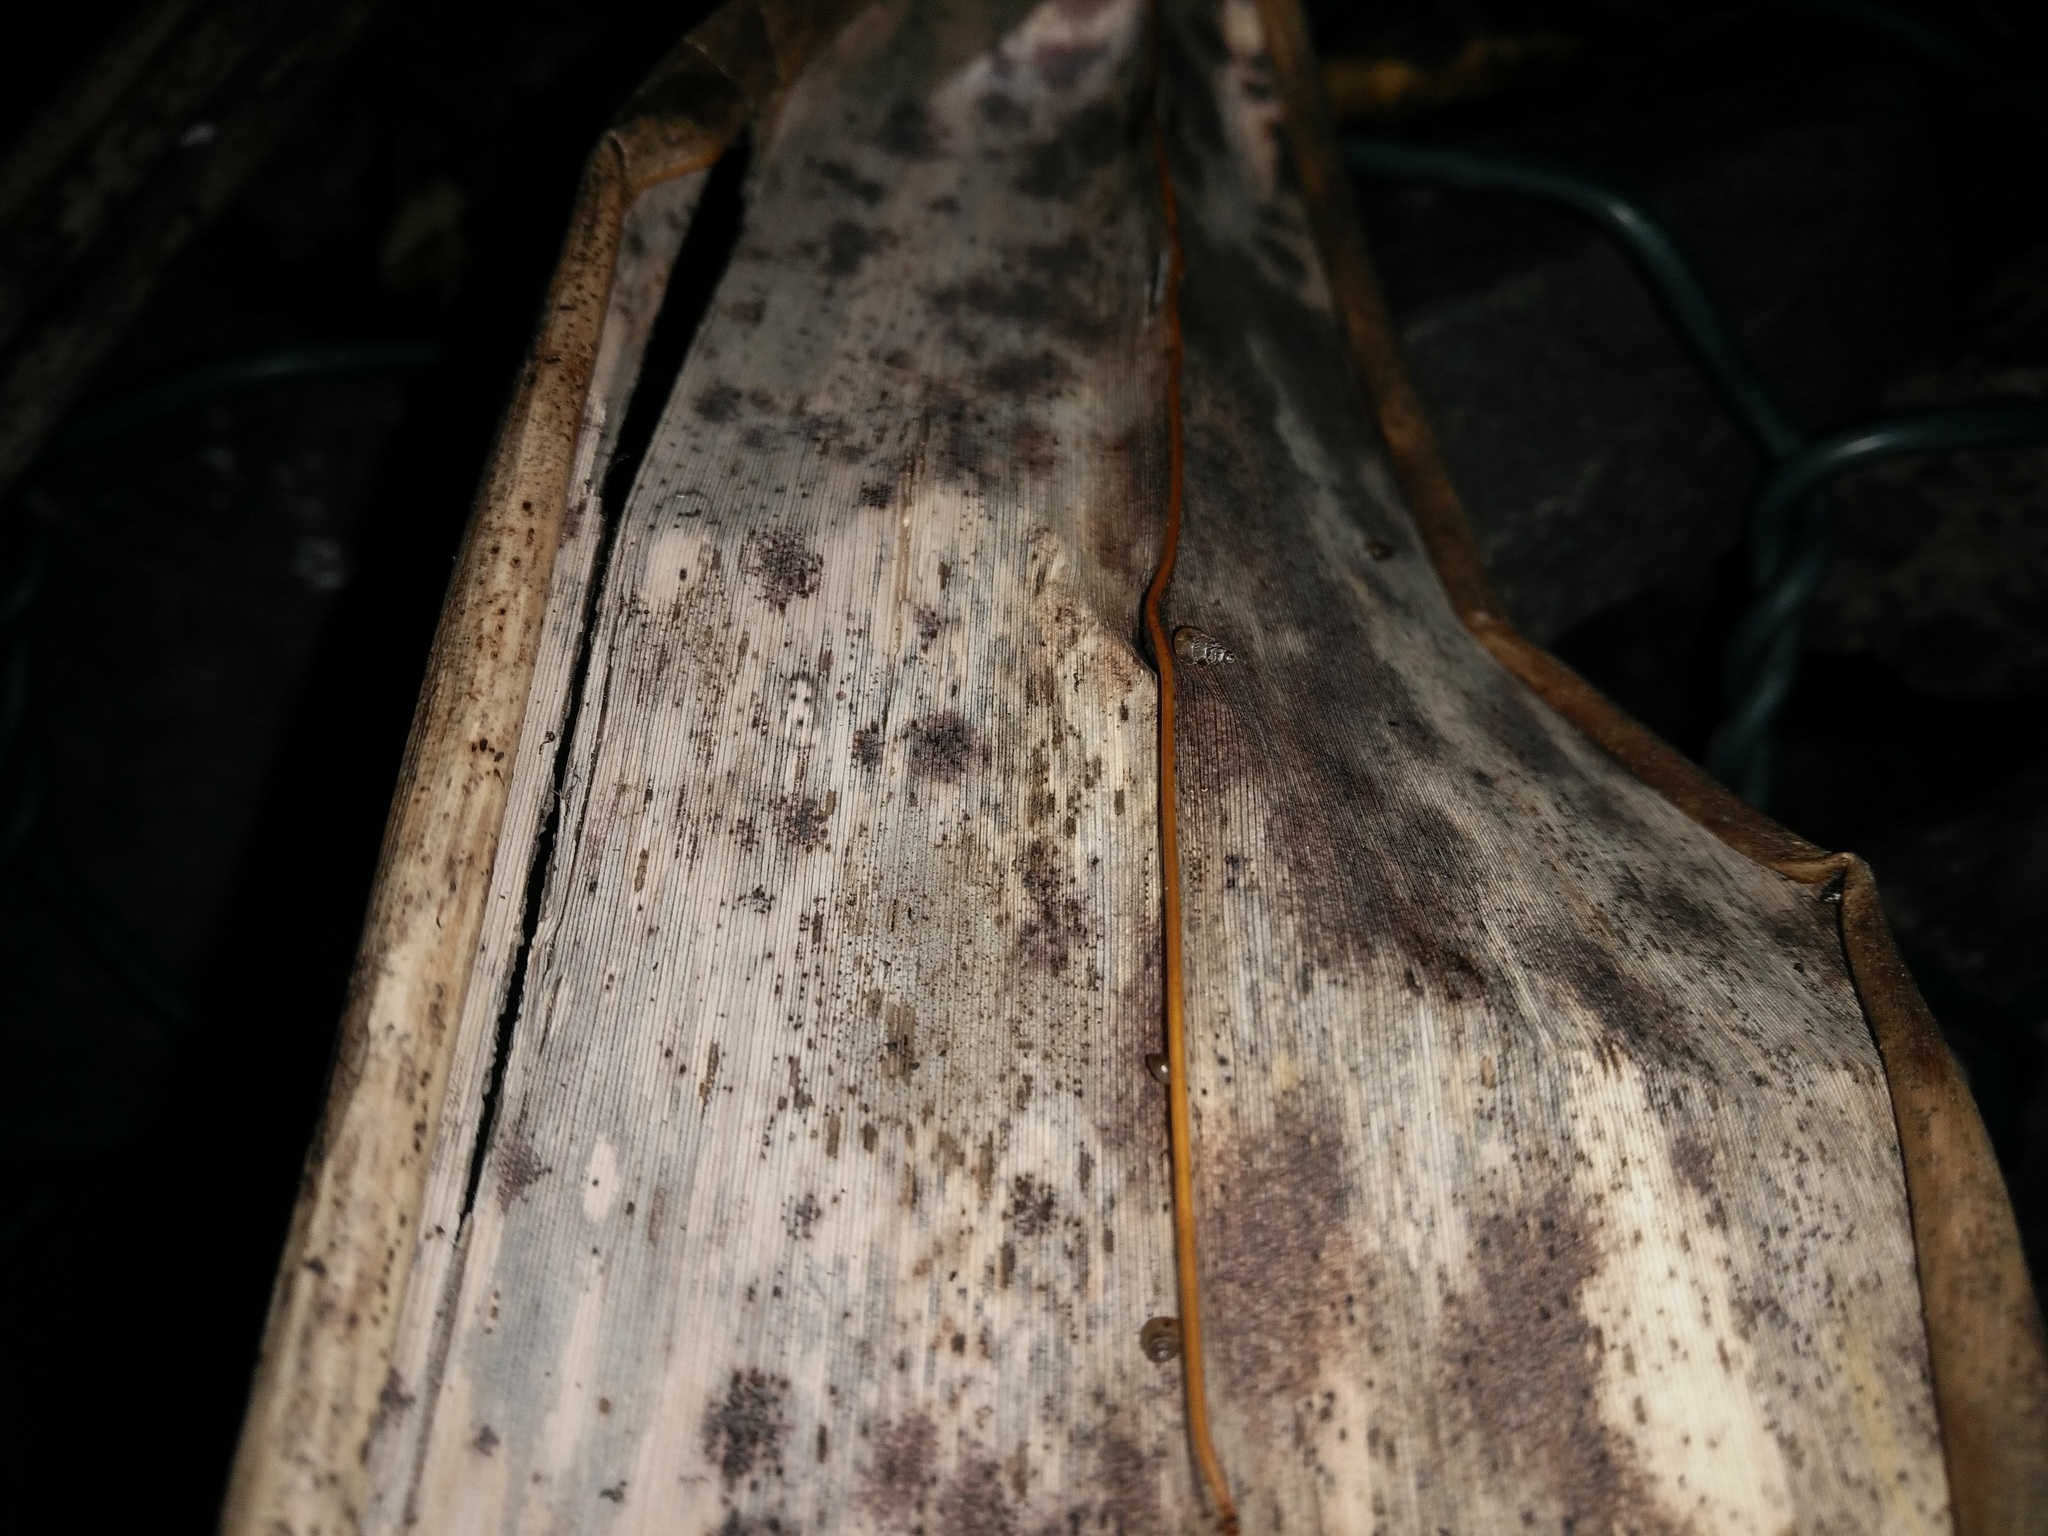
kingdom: Animalia
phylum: Mollusca
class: Gastropoda
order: Stylommatophora
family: Achatinellidae
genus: Tornatellides
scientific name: Tornatellides subperforatus
